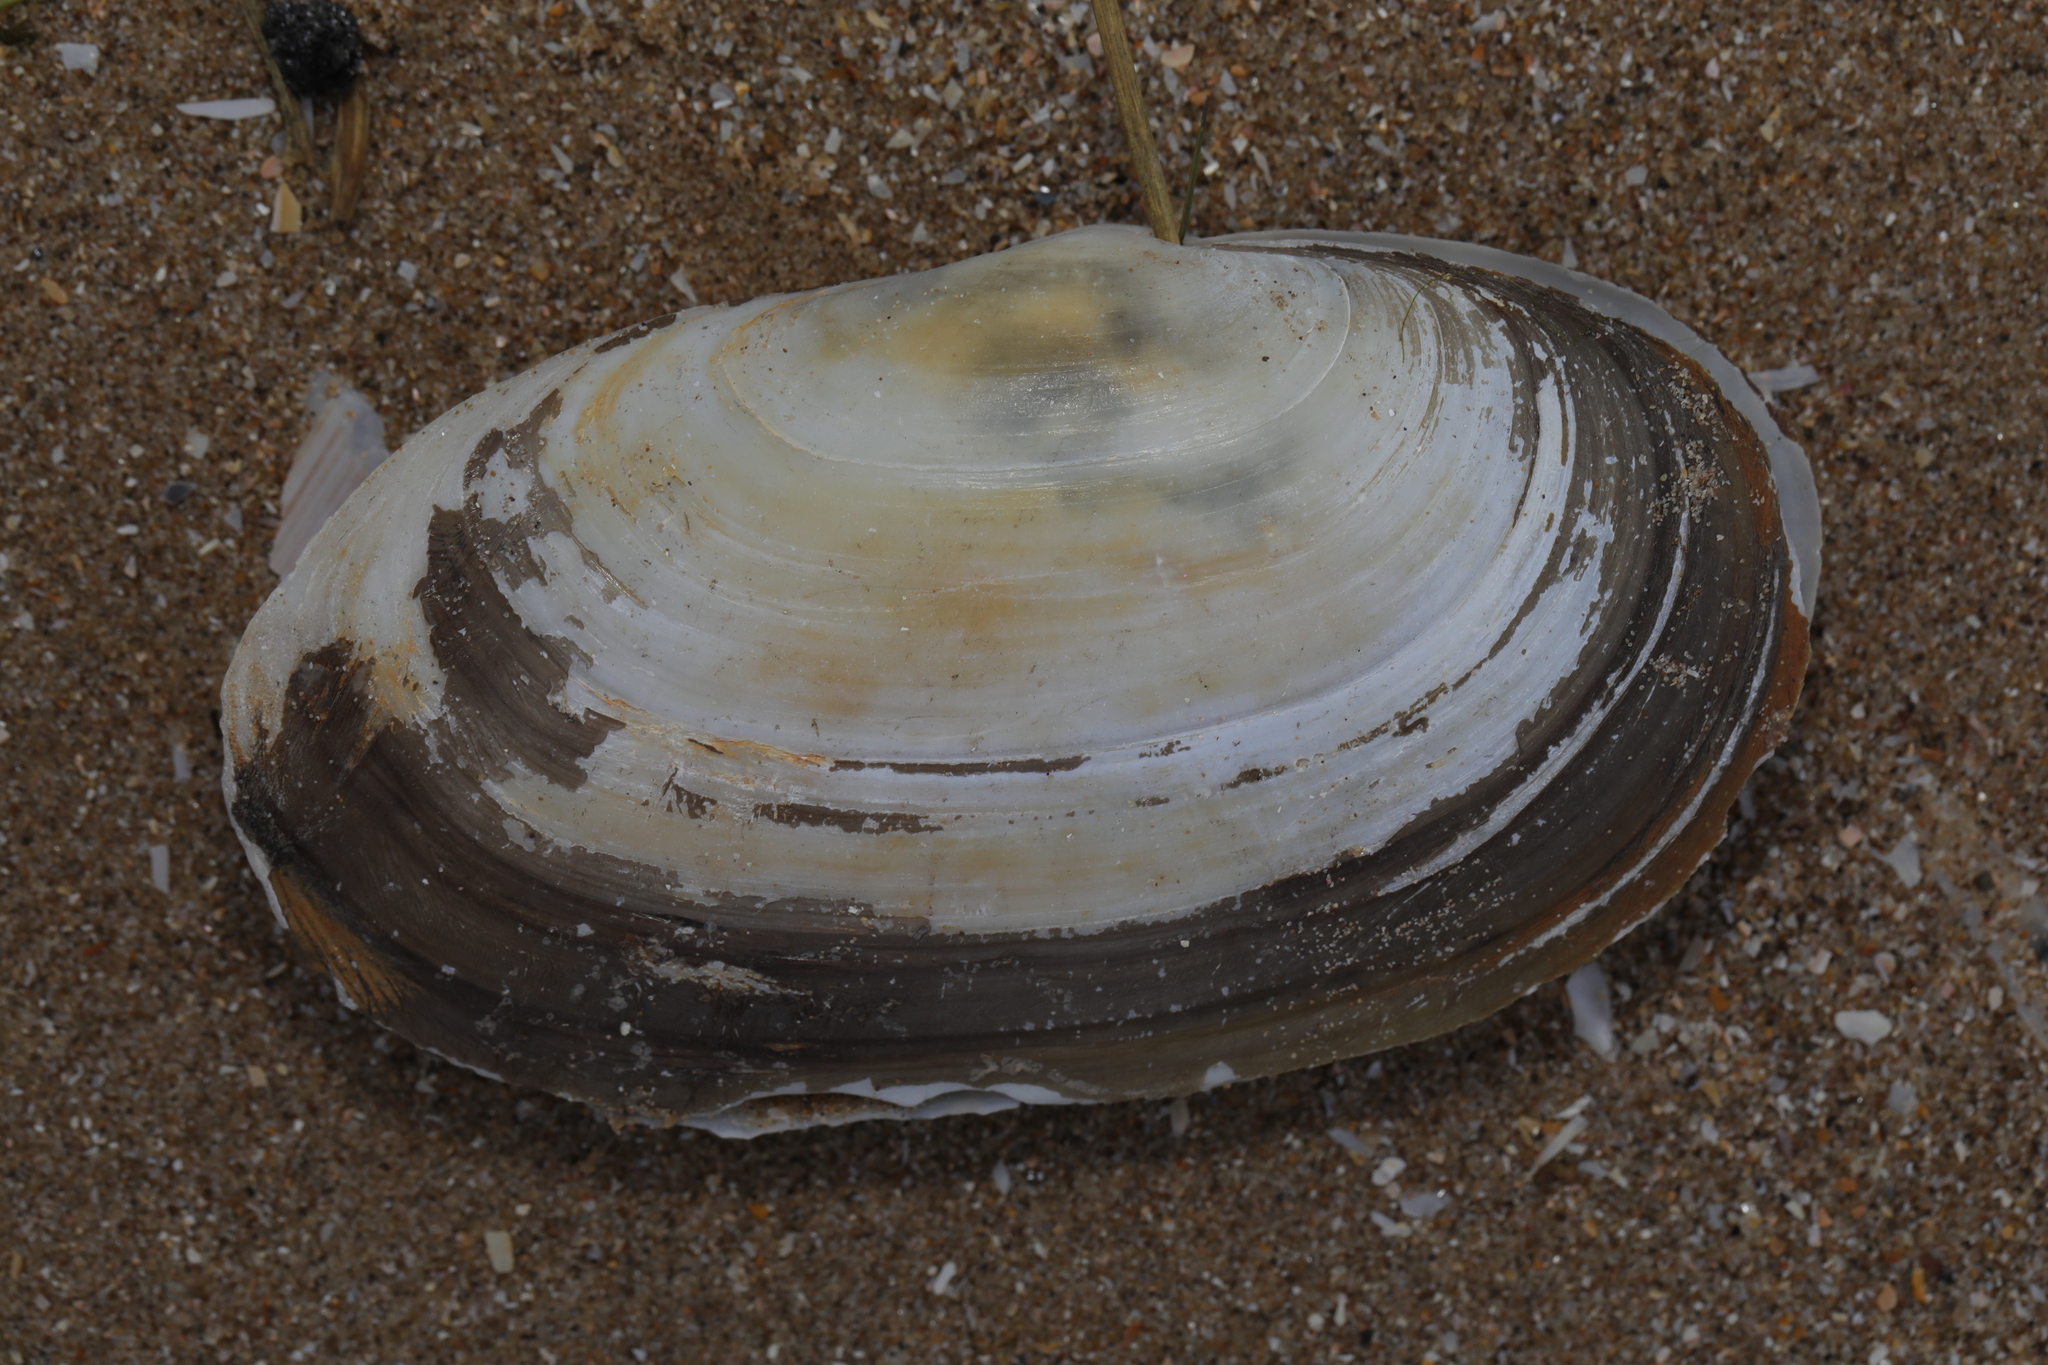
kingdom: Animalia
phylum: Mollusca
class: Bivalvia
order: Venerida
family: Mactridae
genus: Lutraria
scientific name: Lutraria lutraria
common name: Common otter shell
